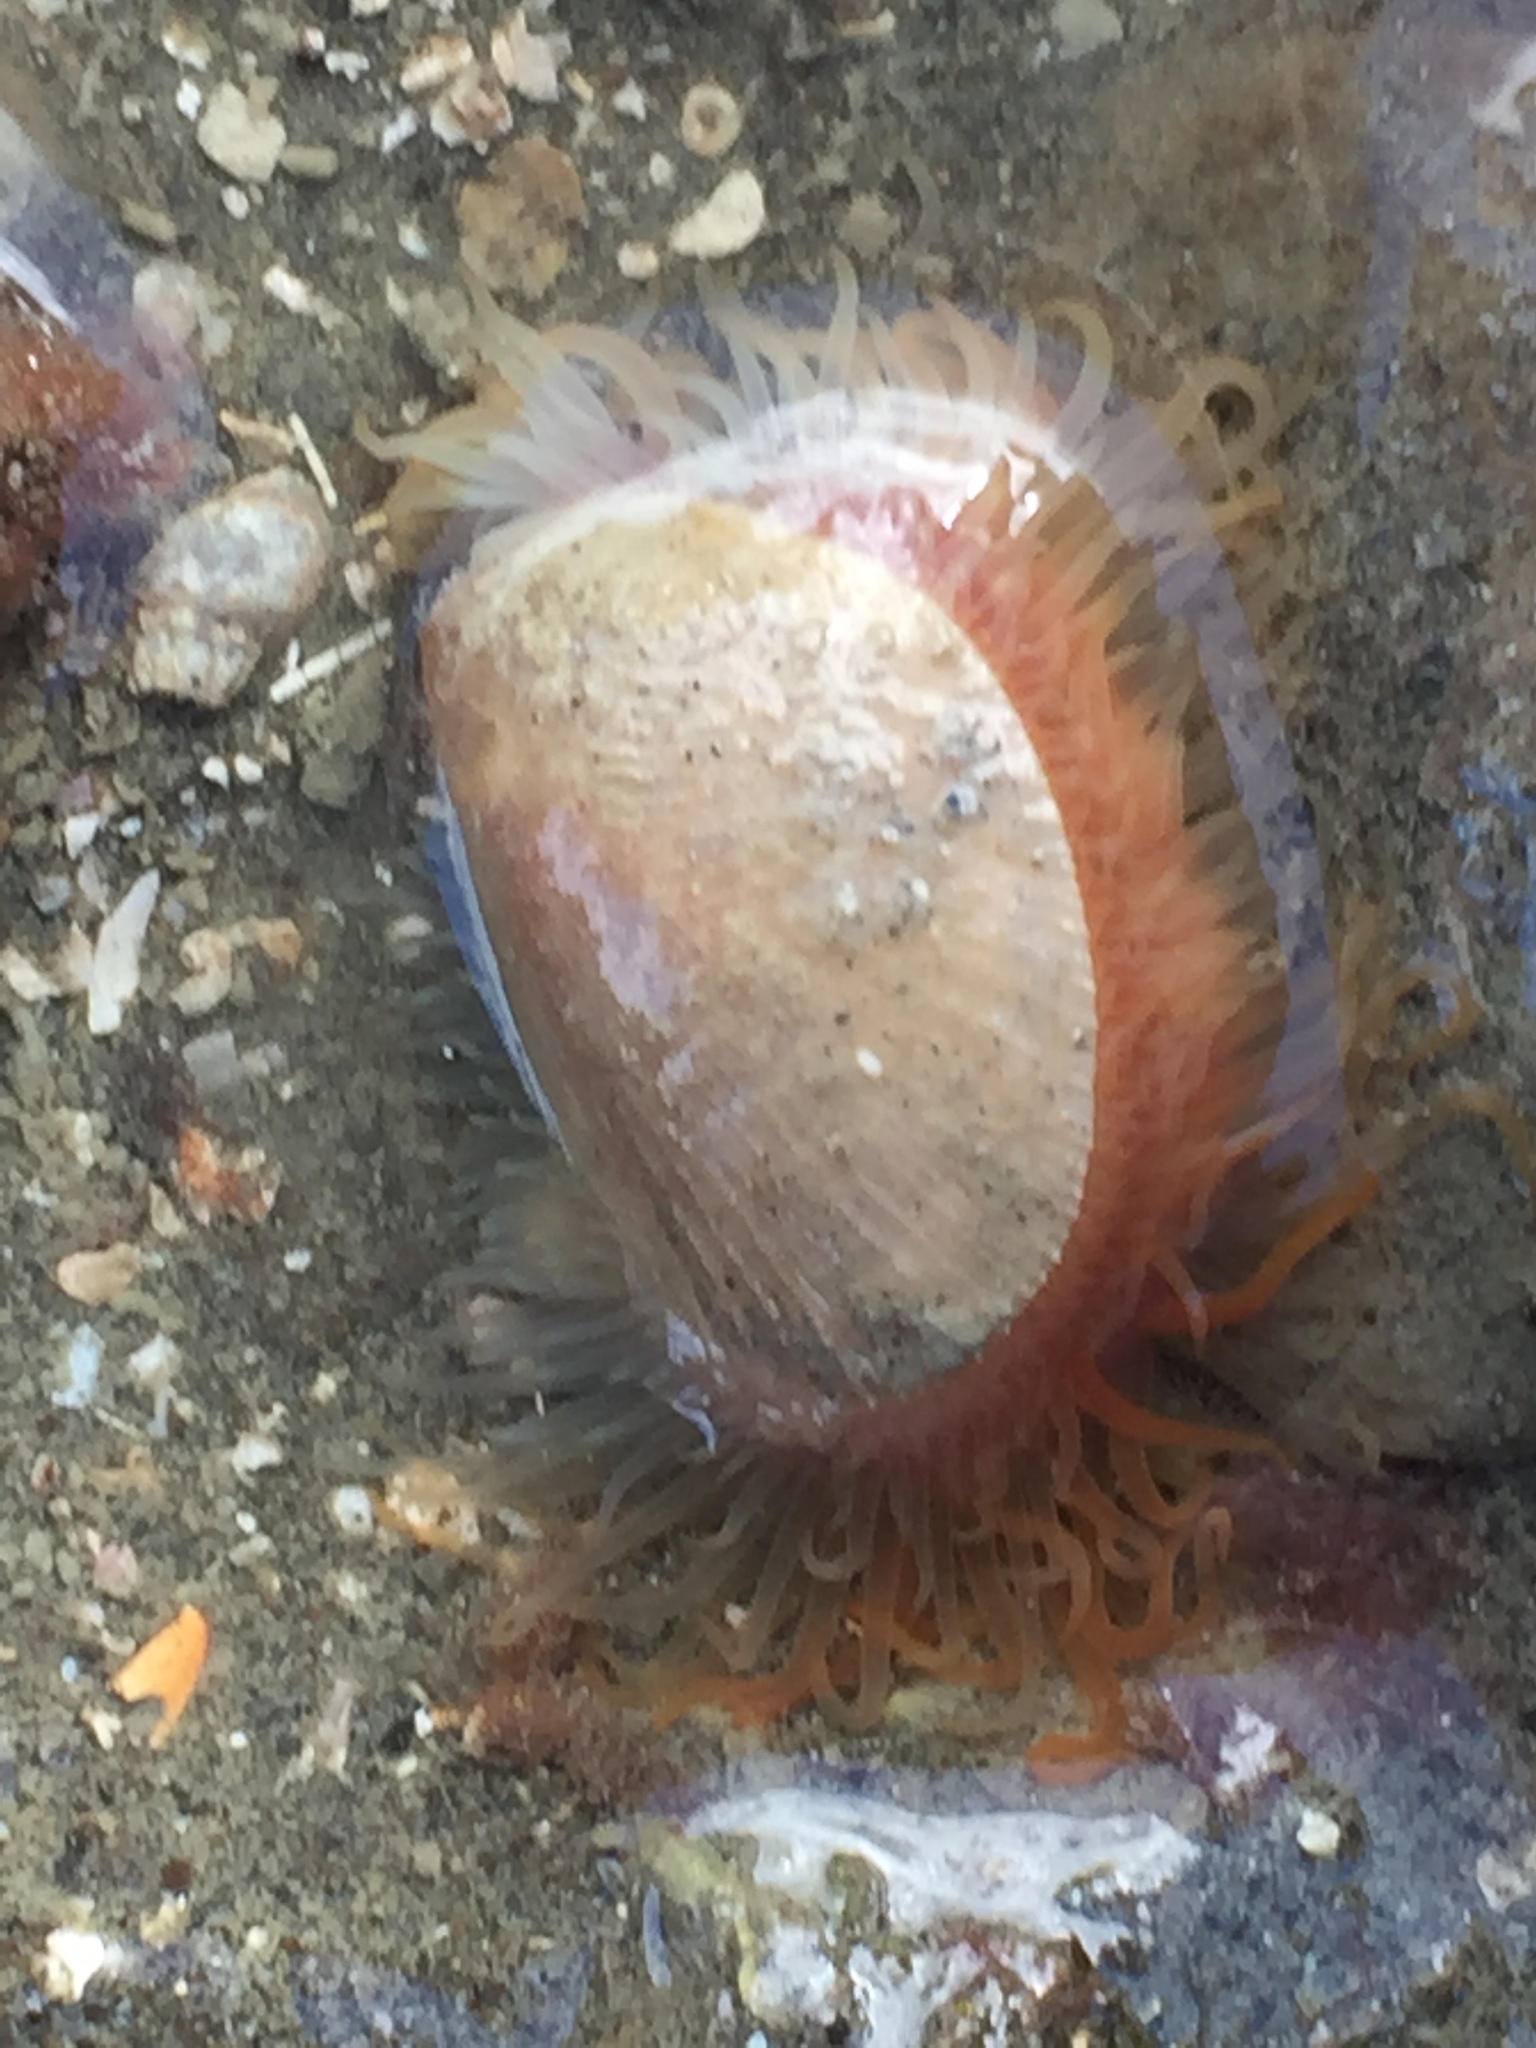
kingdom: Animalia
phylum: Mollusca
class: Bivalvia
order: Limida
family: Limidae
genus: Limaria
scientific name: Limaria orientalis
